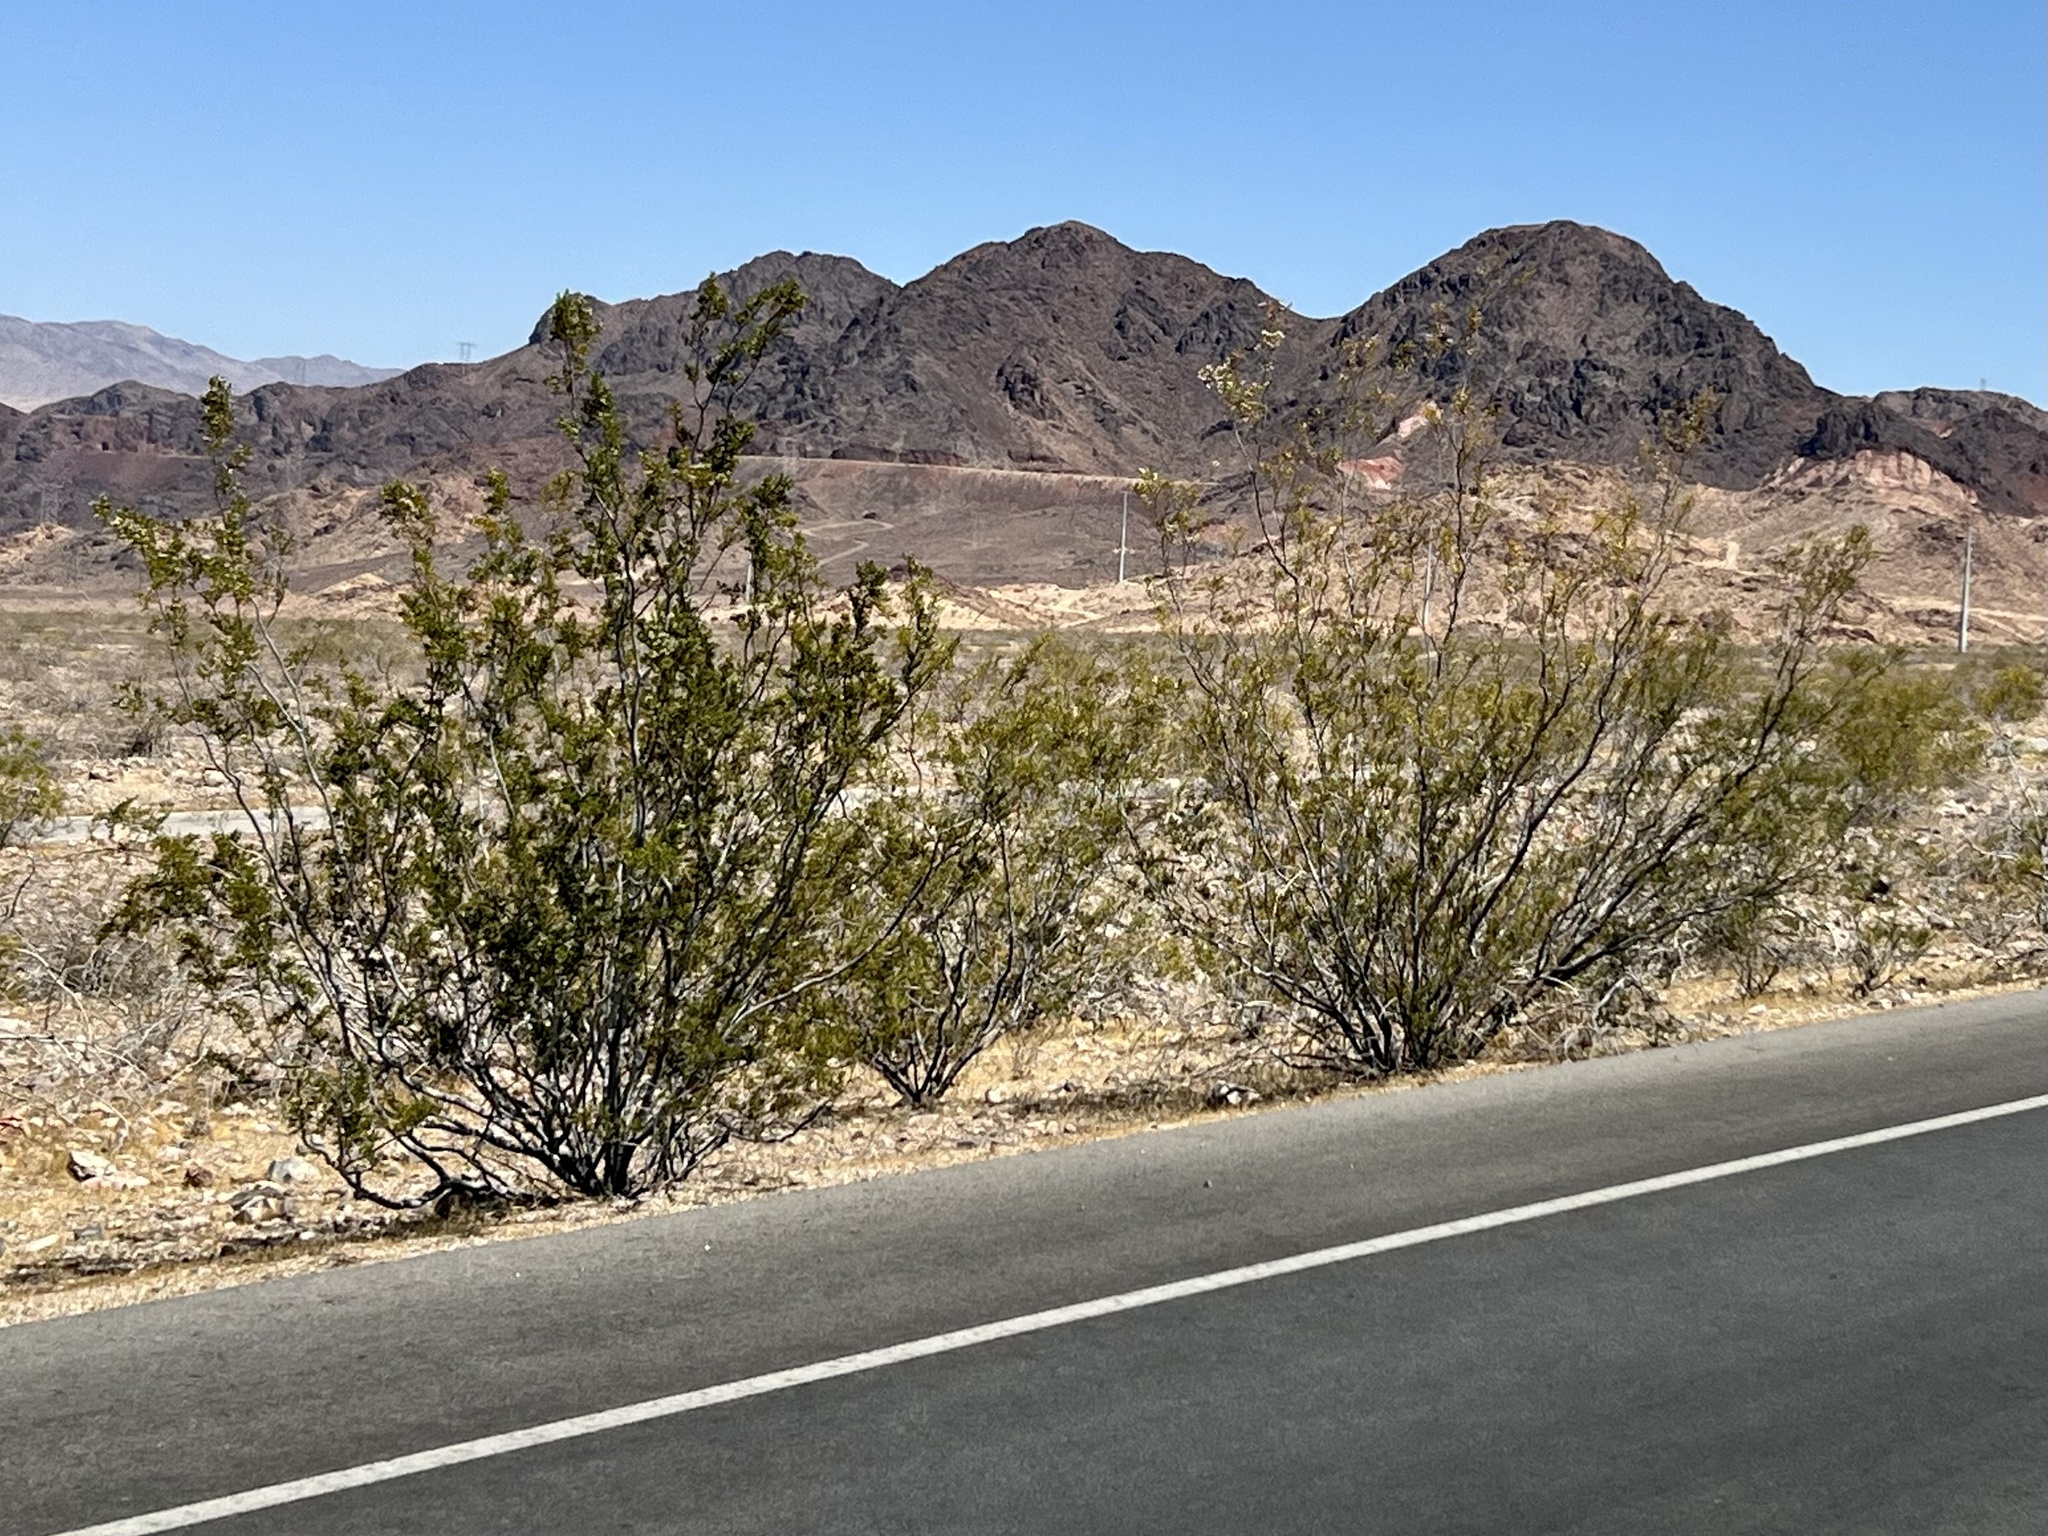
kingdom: Plantae
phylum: Tracheophyta
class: Magnoliopsida
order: Zygophyllales
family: Zygophyllaceae
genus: Larrea
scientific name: Larrea tridentata
